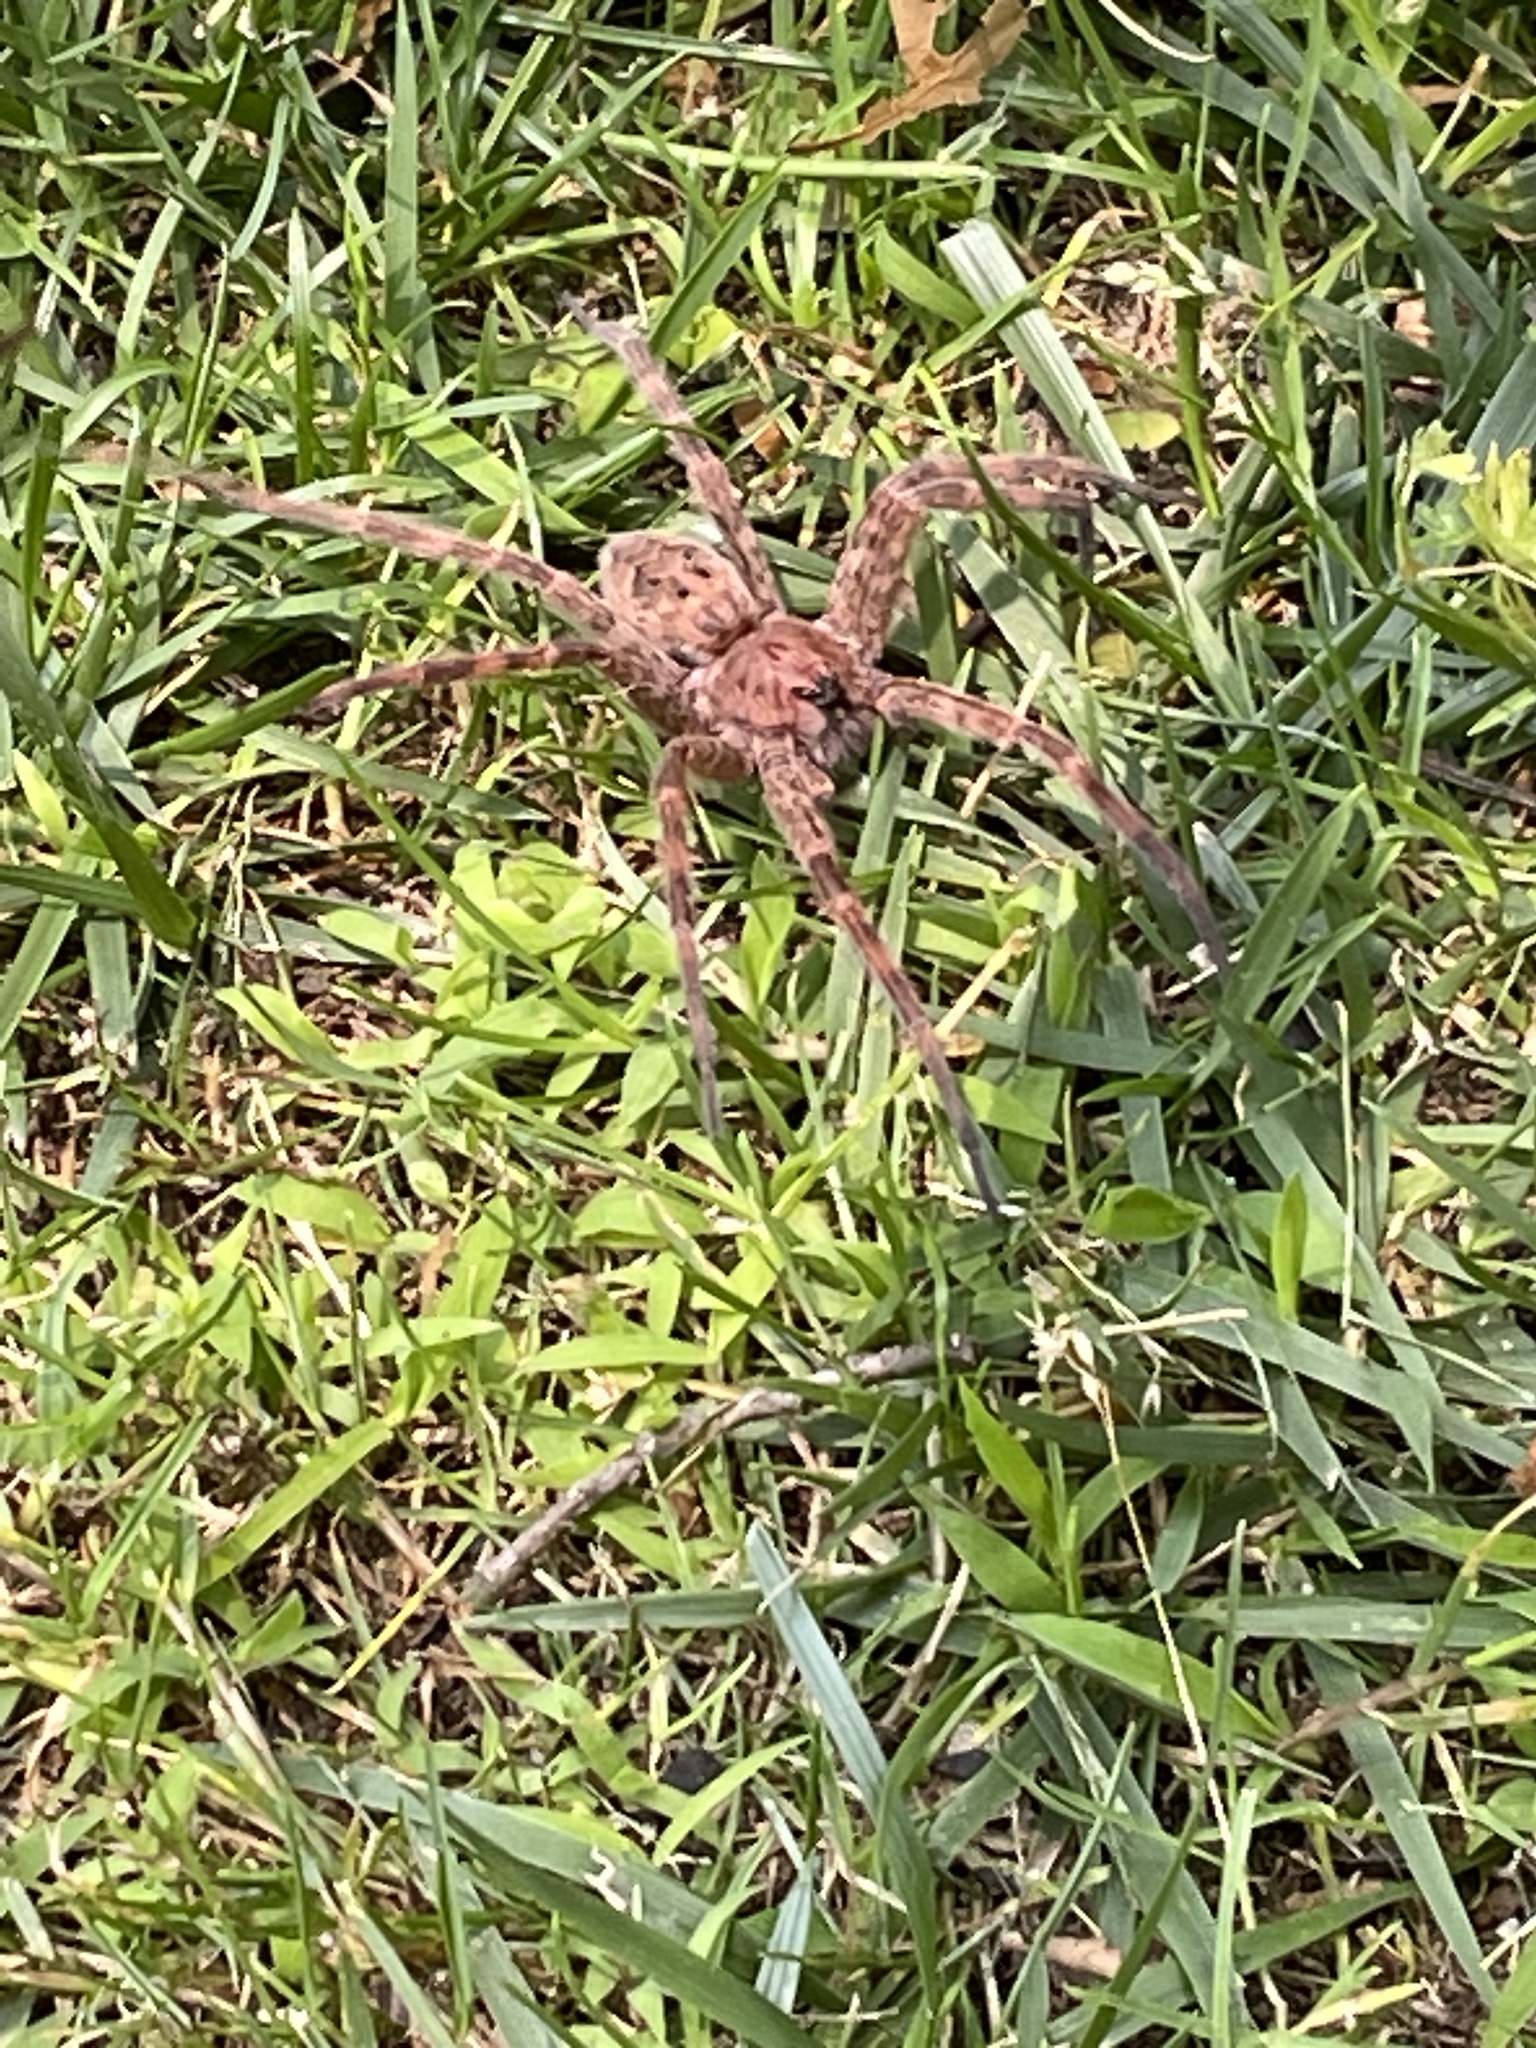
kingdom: Animalia
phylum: Arthropoda
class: Arachnida
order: Araneae
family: Pisauridae
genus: Dolomedes
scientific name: Dolomedes tenebrosus
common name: Dark fishing spider
